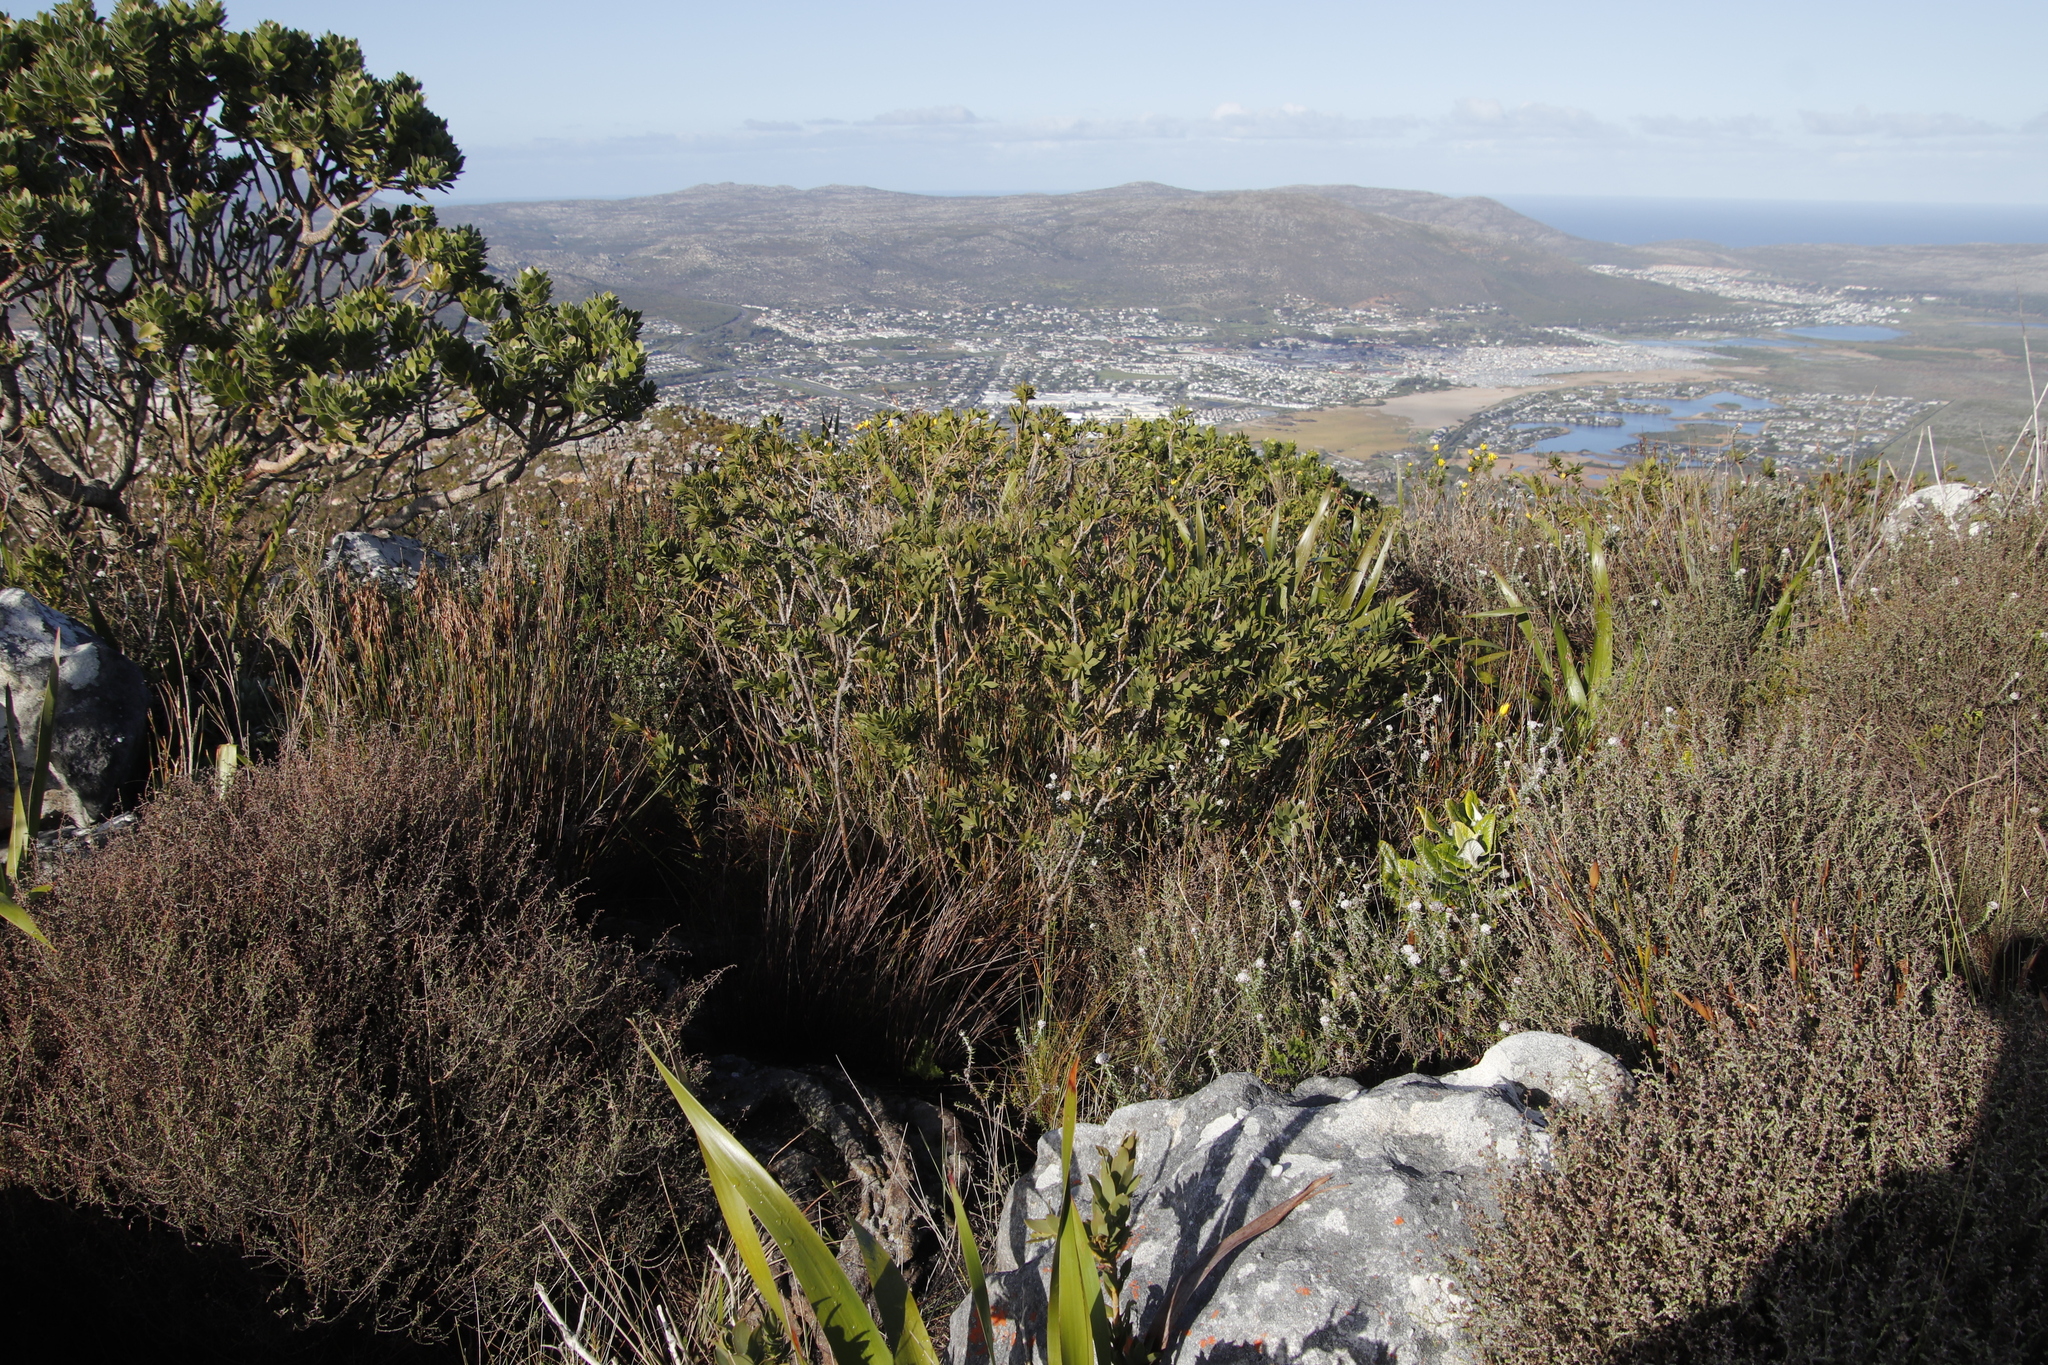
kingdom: Plantae
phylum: Tracheophyta
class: Magnoliopsida
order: Fabales
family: Fabaceae
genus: Liparia
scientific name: Liparia splendens
